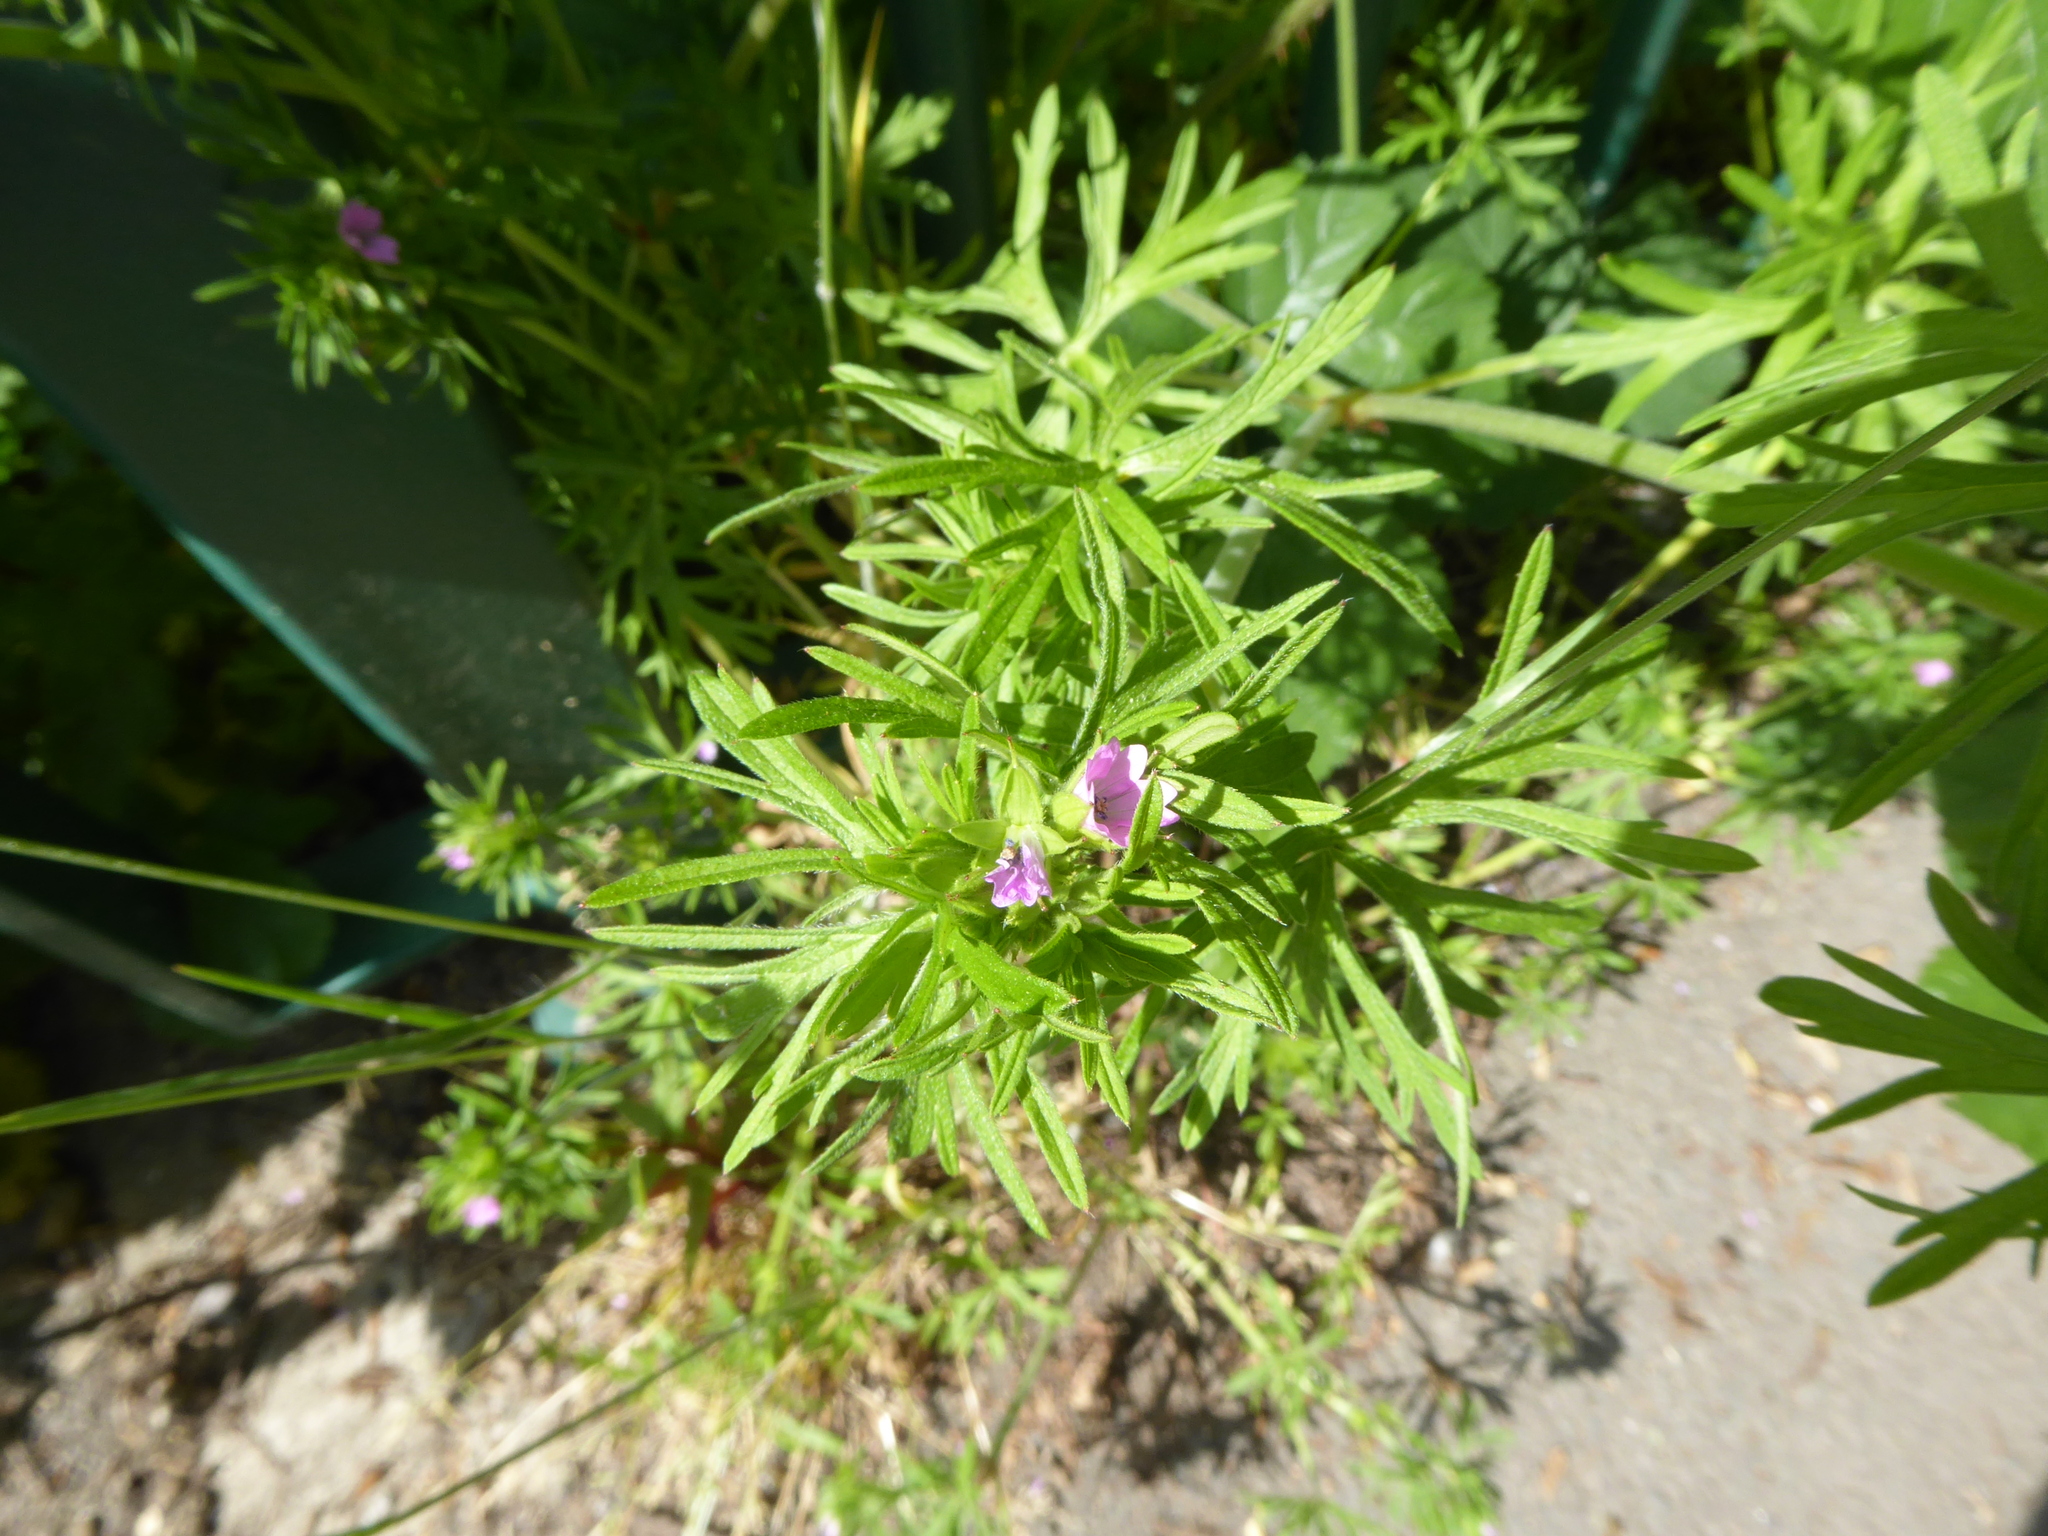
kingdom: Plantae
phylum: Tracheophyta
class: Magnoliopsida
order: Geraniales
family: Geraniaceae
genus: Geranium
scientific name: Geranium dissectum
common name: Cut-leaved crane's-bill
